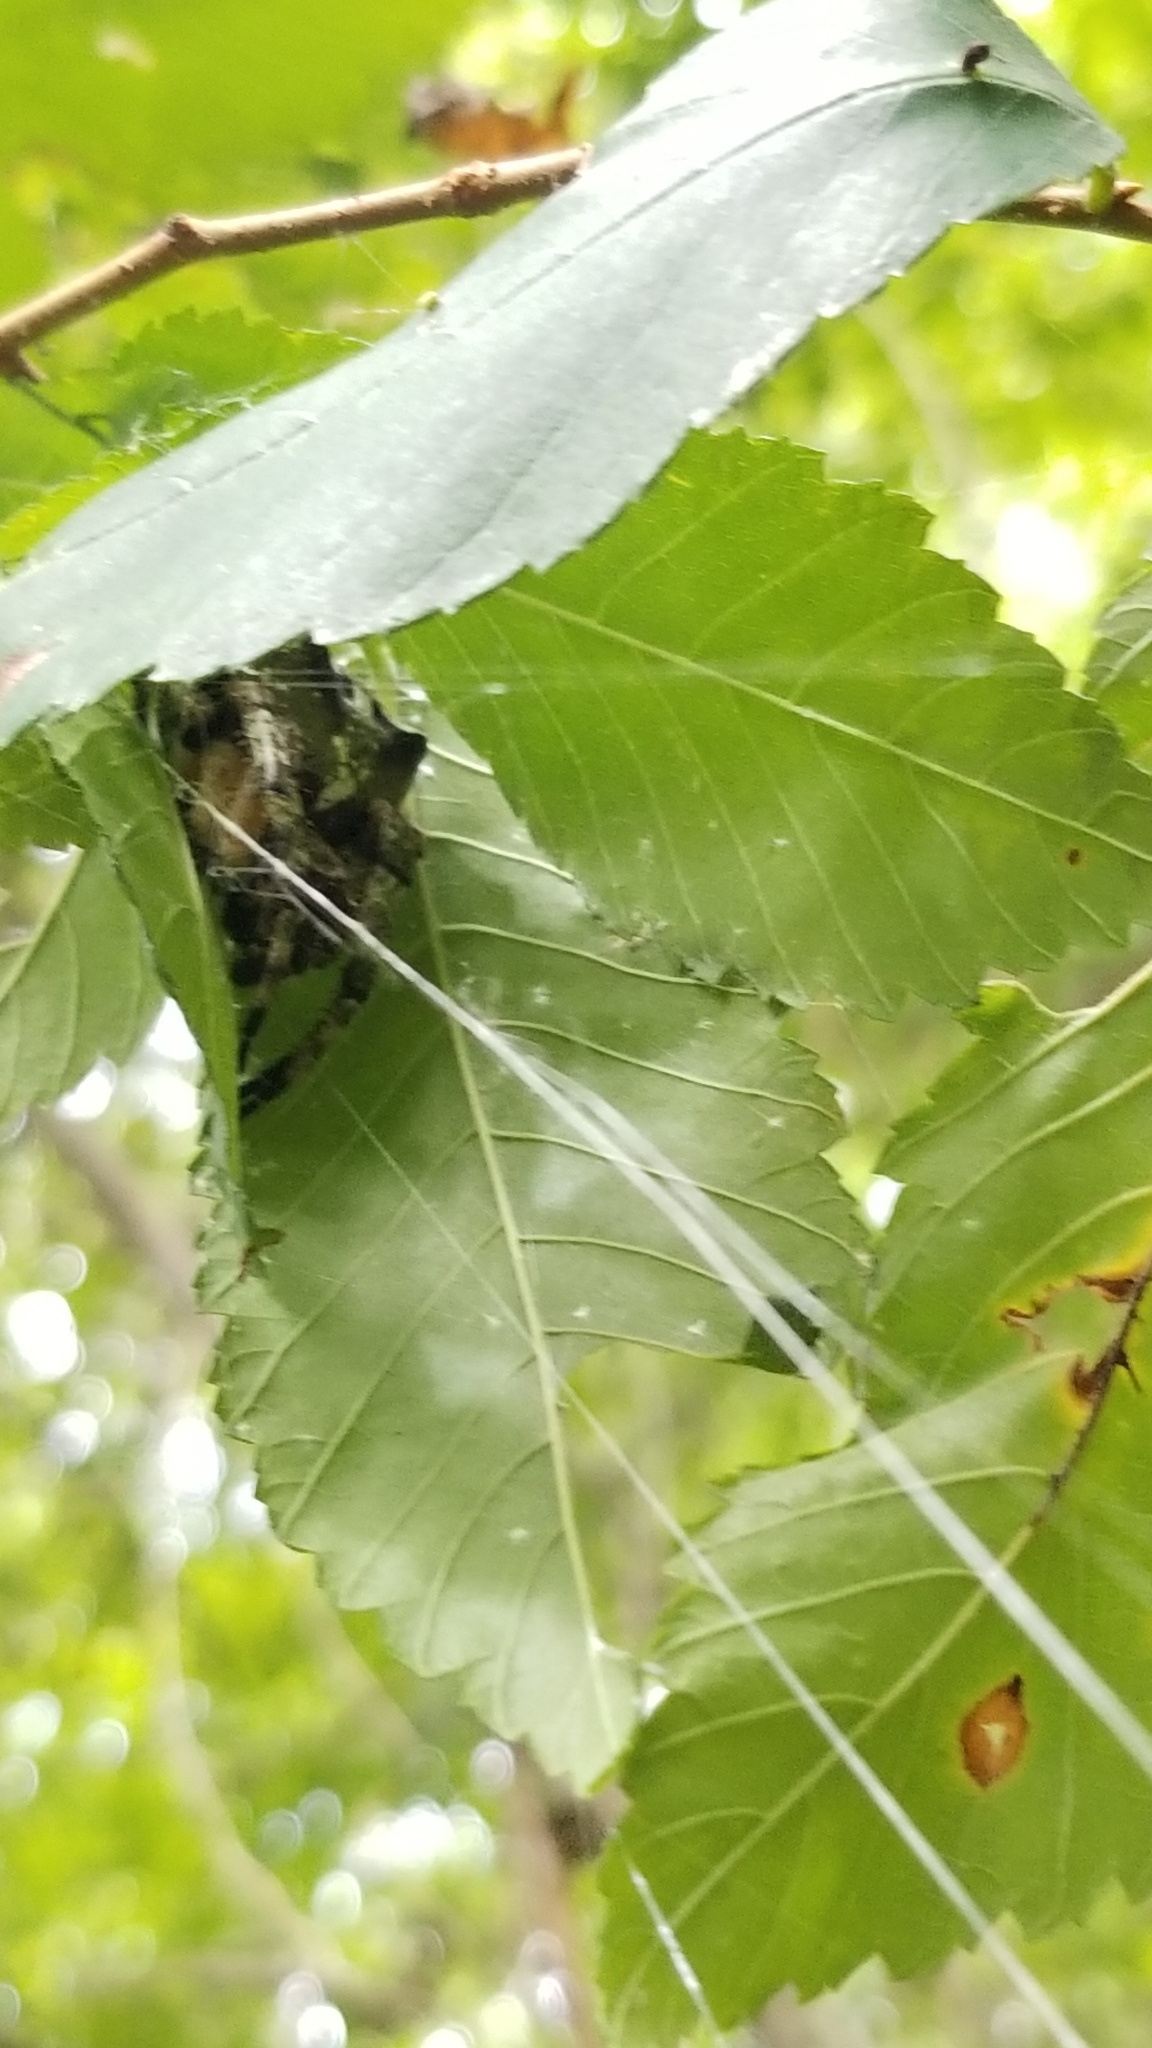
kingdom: Animalia
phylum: Arthropoda
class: Arachnida
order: Araneae
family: Araneidae
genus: Araneus
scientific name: Araneus bicentenarius
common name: Giant lichen orbweaver
